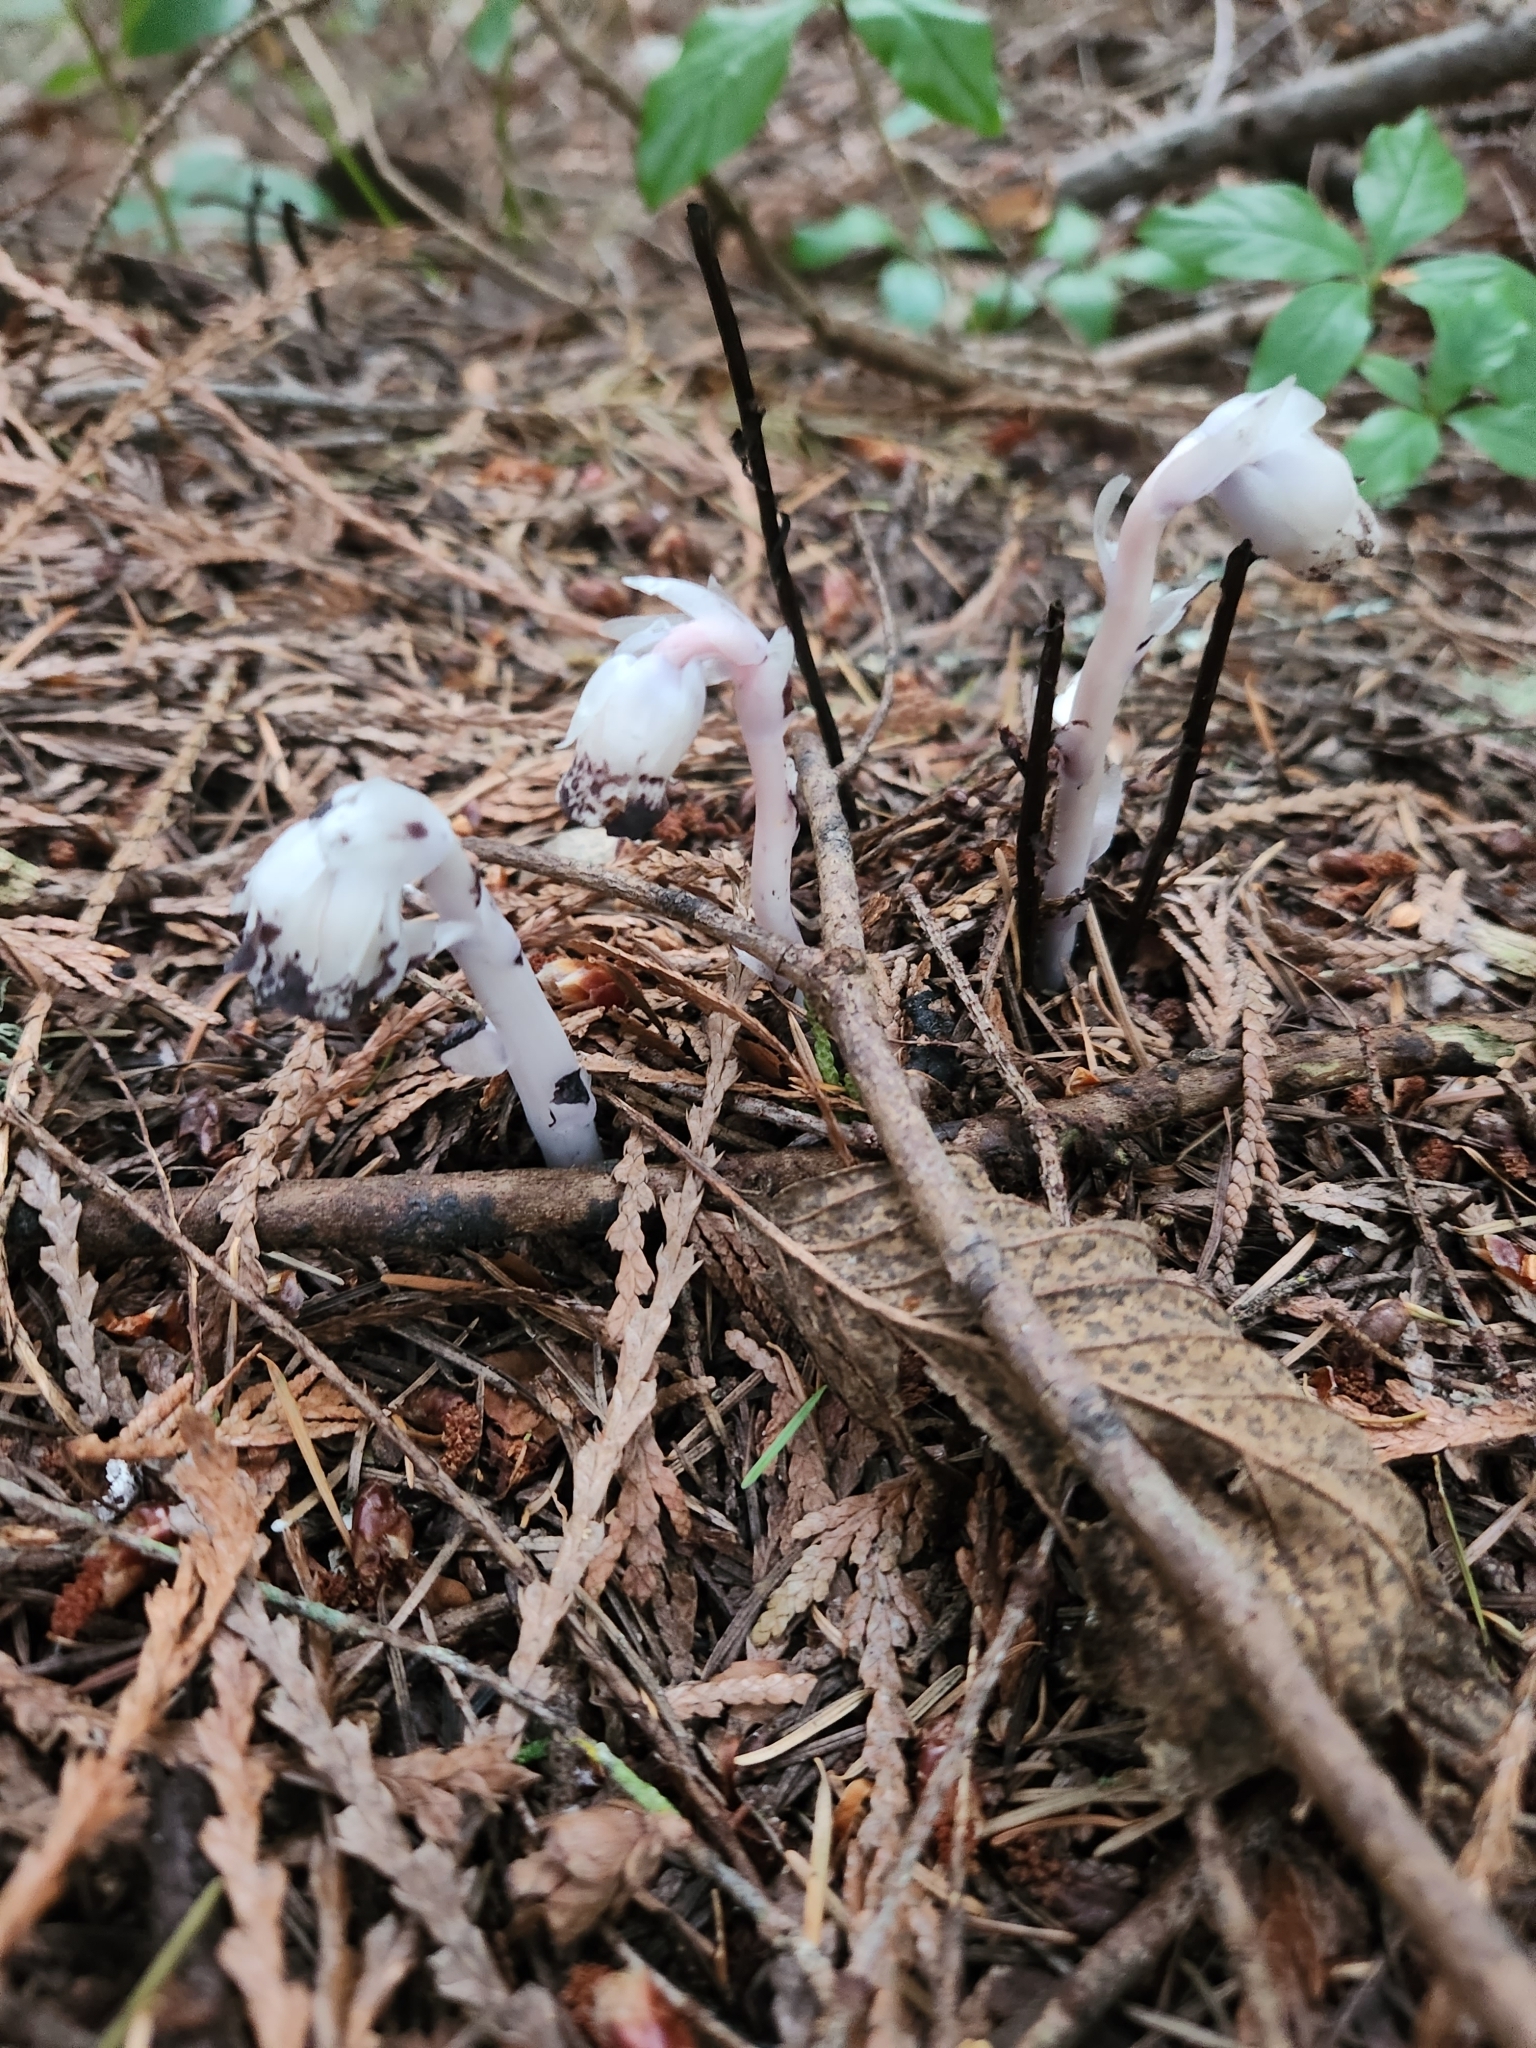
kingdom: Plantae
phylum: Tracheophyta
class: Magnoliopsida
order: Ericales
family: Ericaceae
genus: Monotropa
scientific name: Monotropa uniflora
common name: Convulsion root
